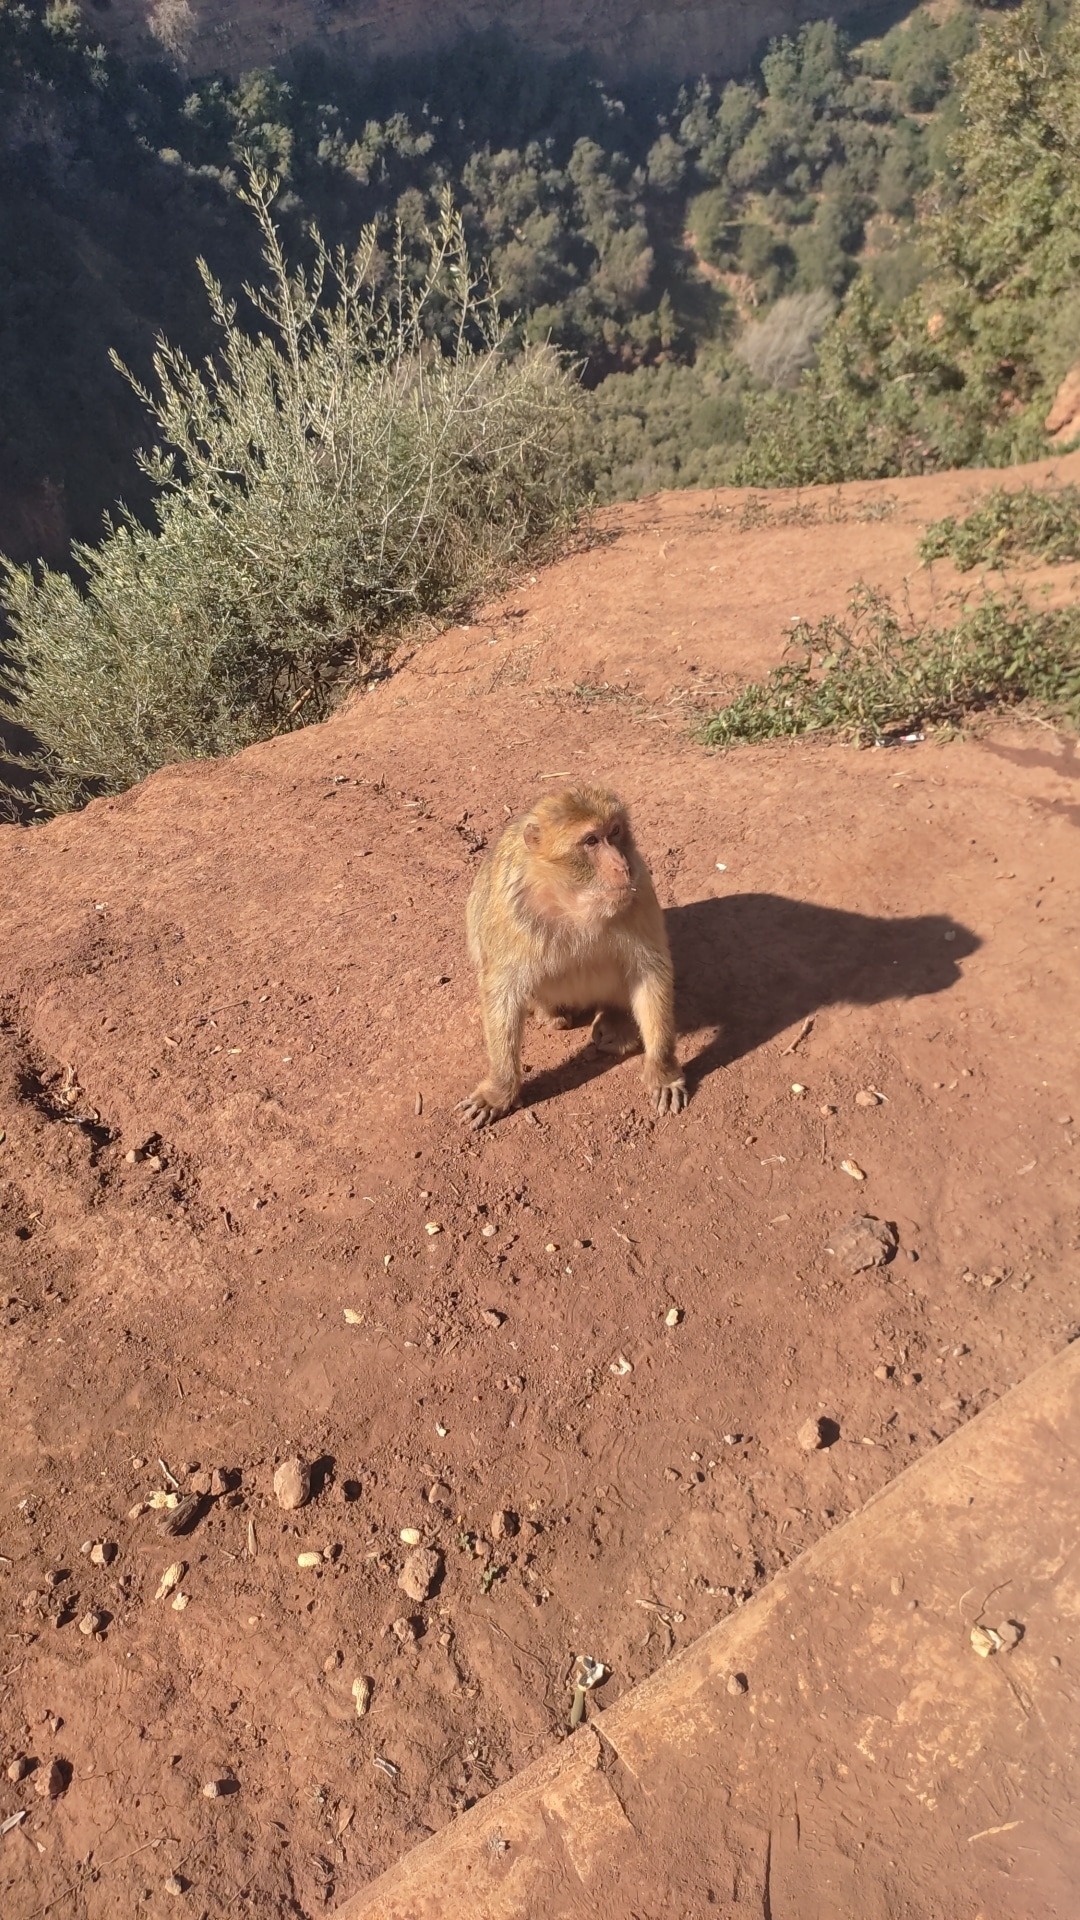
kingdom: Animalia
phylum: Chordata
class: Mammalia
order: Primates
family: Cercopithecidae
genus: Macaca
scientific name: Macaca sylvanus
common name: Barbary macaque
